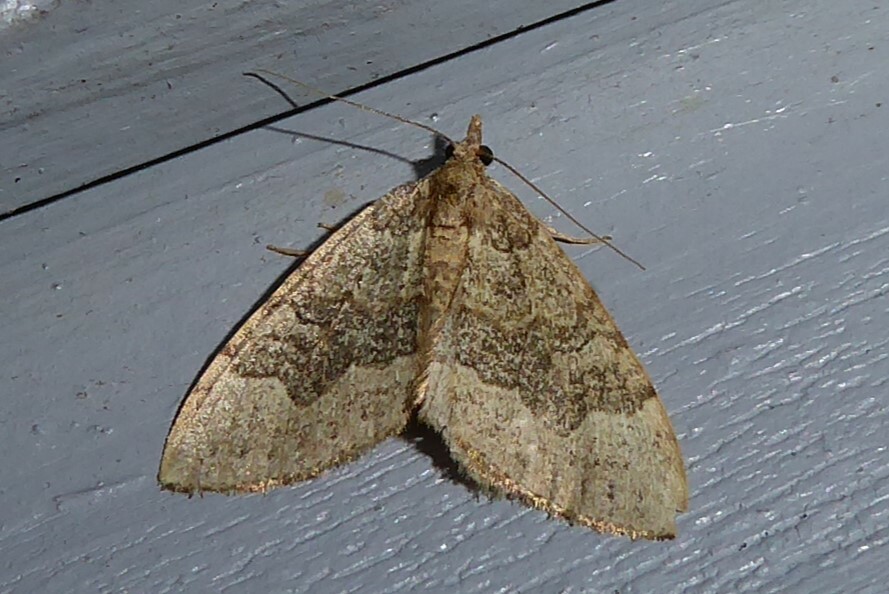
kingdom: Animalia
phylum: Arthropoda
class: Insecta
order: Lepidoptera
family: Geometridae
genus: Epyaxa
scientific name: Epyaxa rosearia
